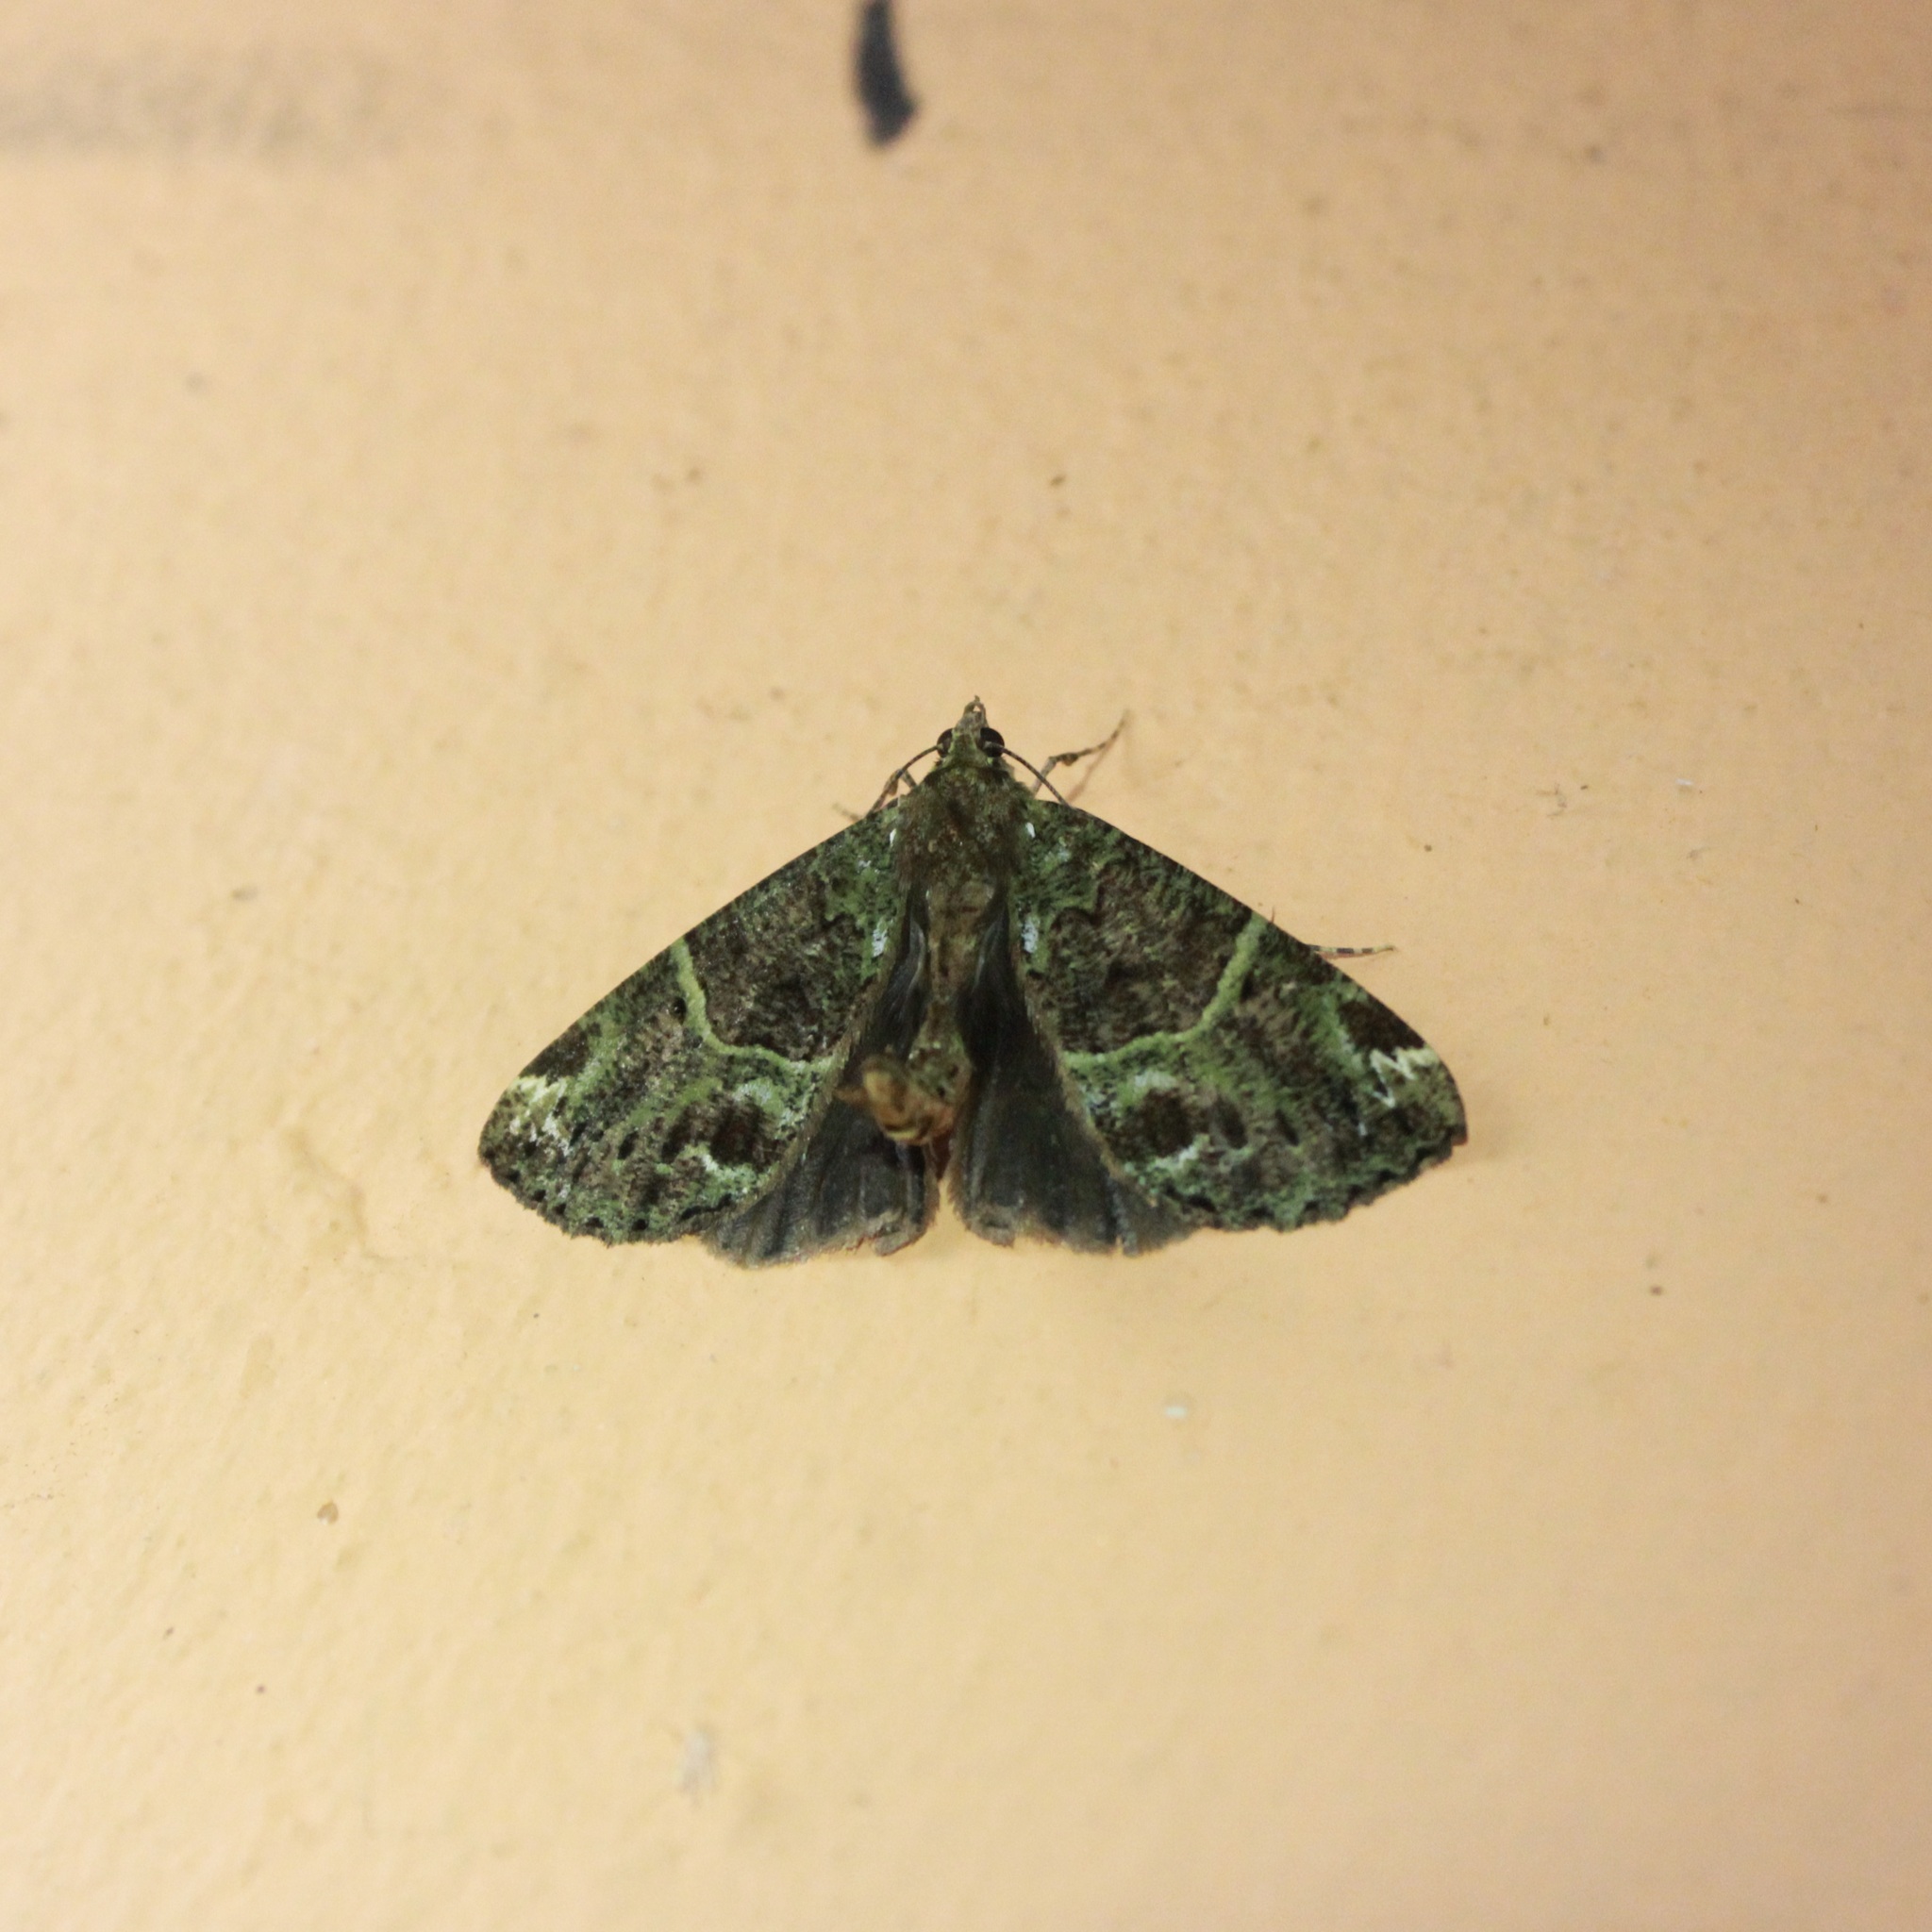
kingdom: Animalia
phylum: Arthropoda
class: Insecta
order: Lepidoptera
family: Geometridae
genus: Ischnopteris
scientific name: Ischnopteris bryifera
